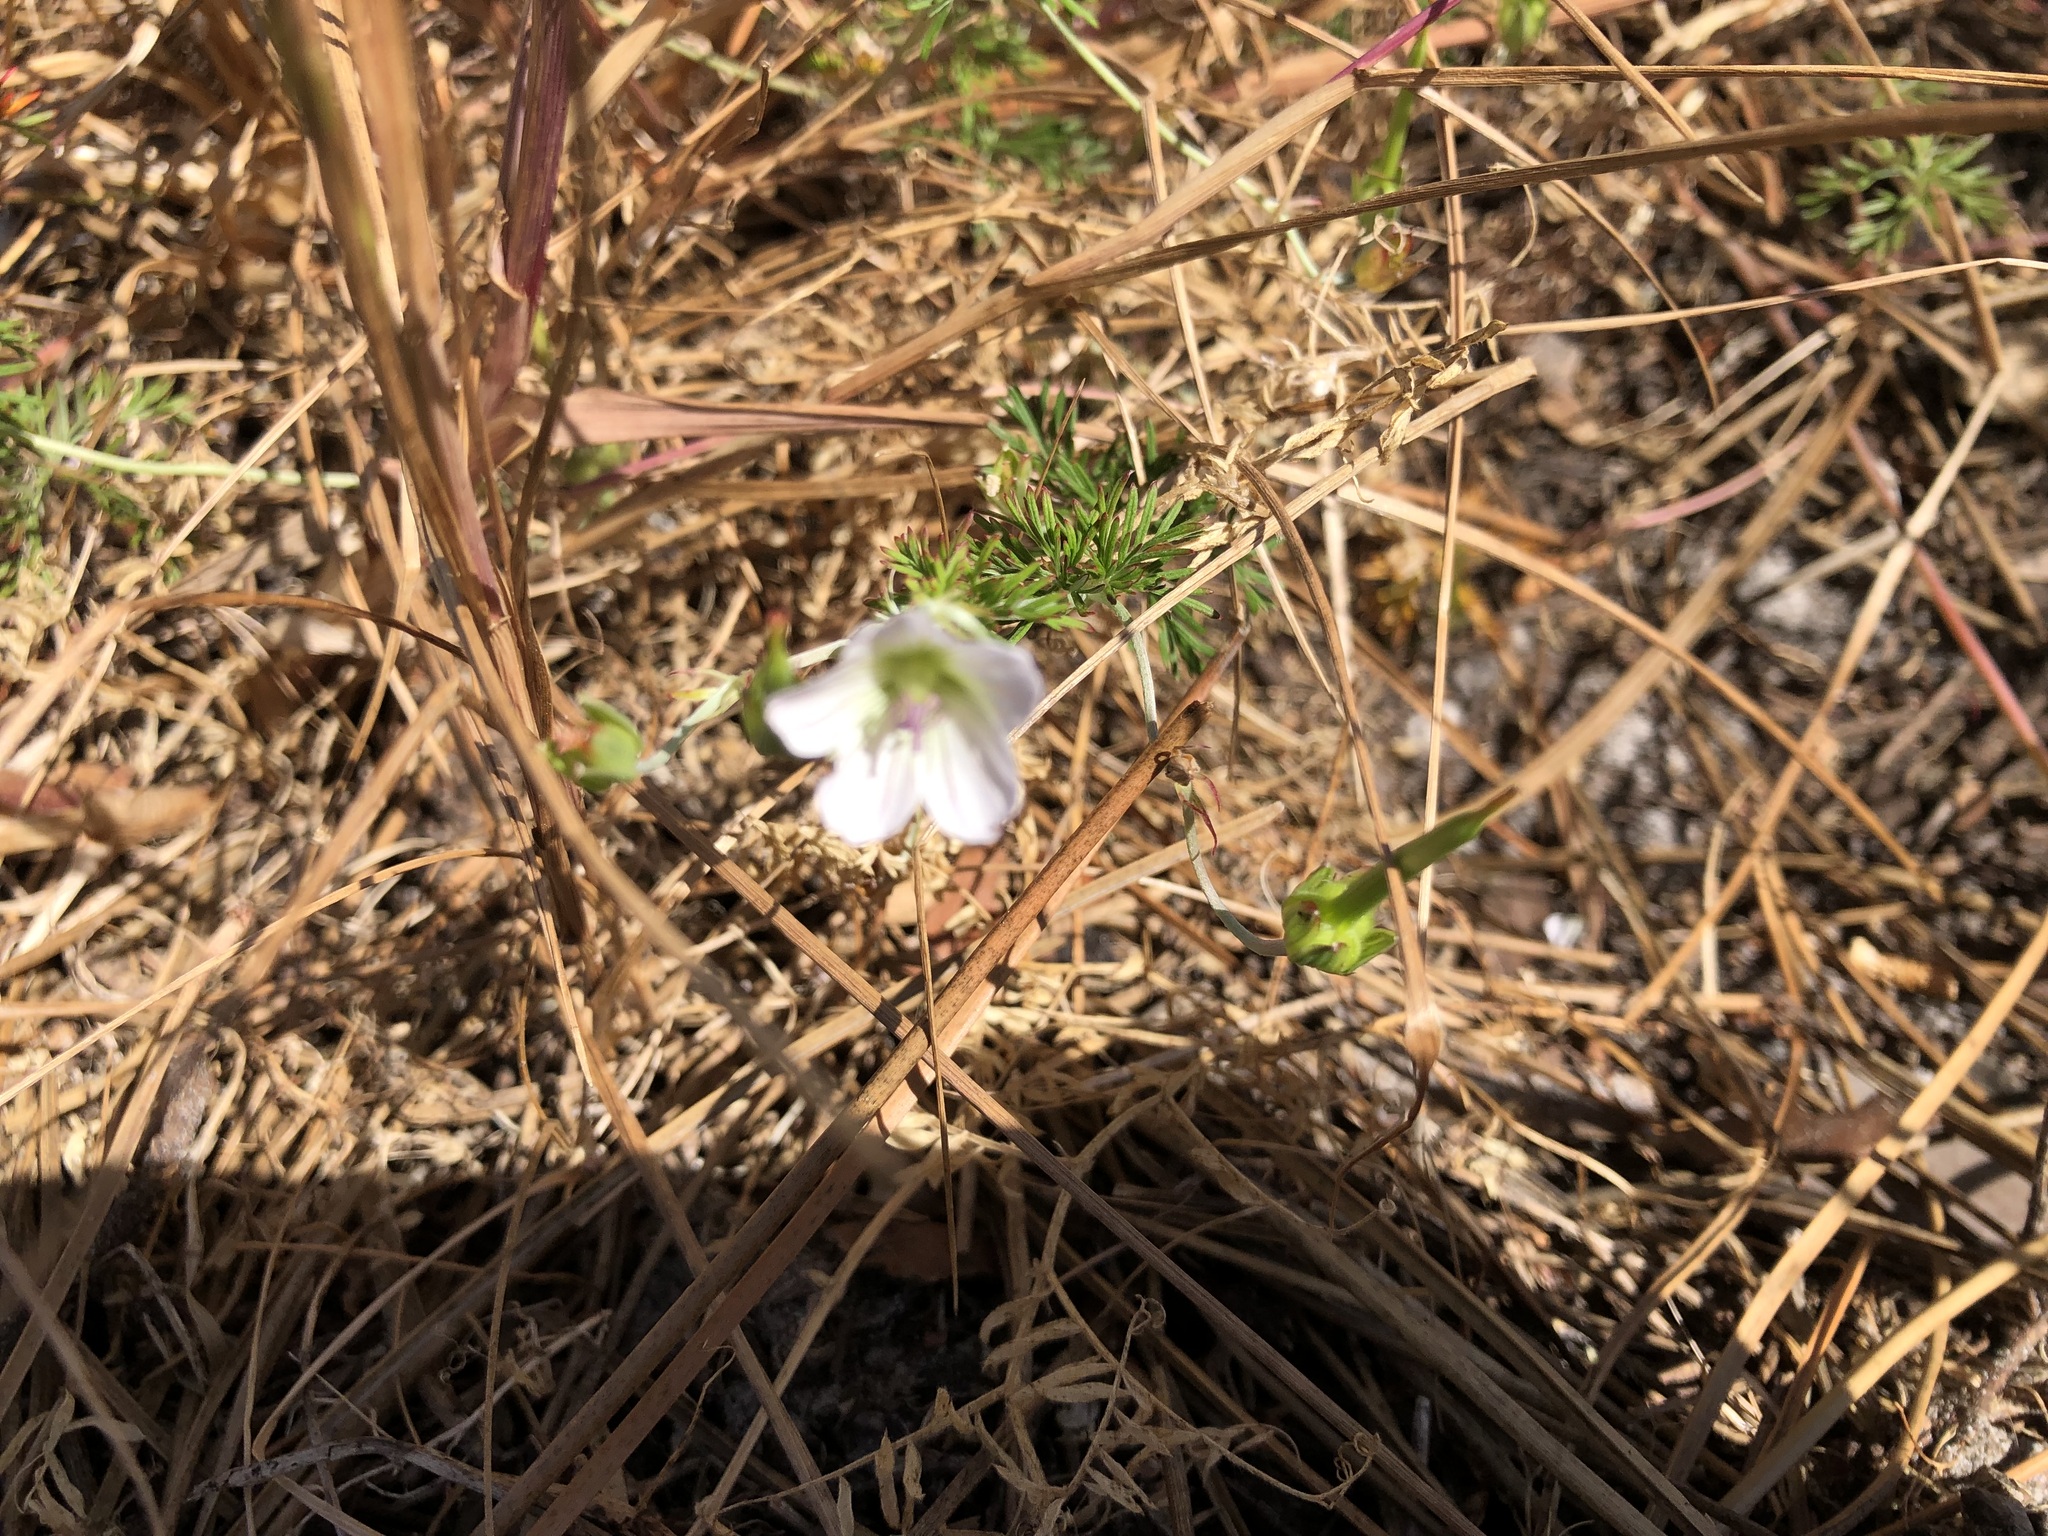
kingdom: Plantae
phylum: Tracheophyta
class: Magnoliopsida
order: Geraniales
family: Geraniaceae
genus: Geranium
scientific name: Geranium incanum
